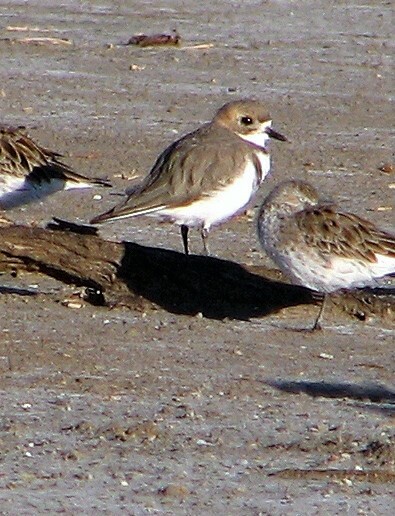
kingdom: Animalia
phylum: Chordata
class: Aves
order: Charadriiformes
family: Charadriidae
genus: Anarhynchus
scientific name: Anarhynchus
